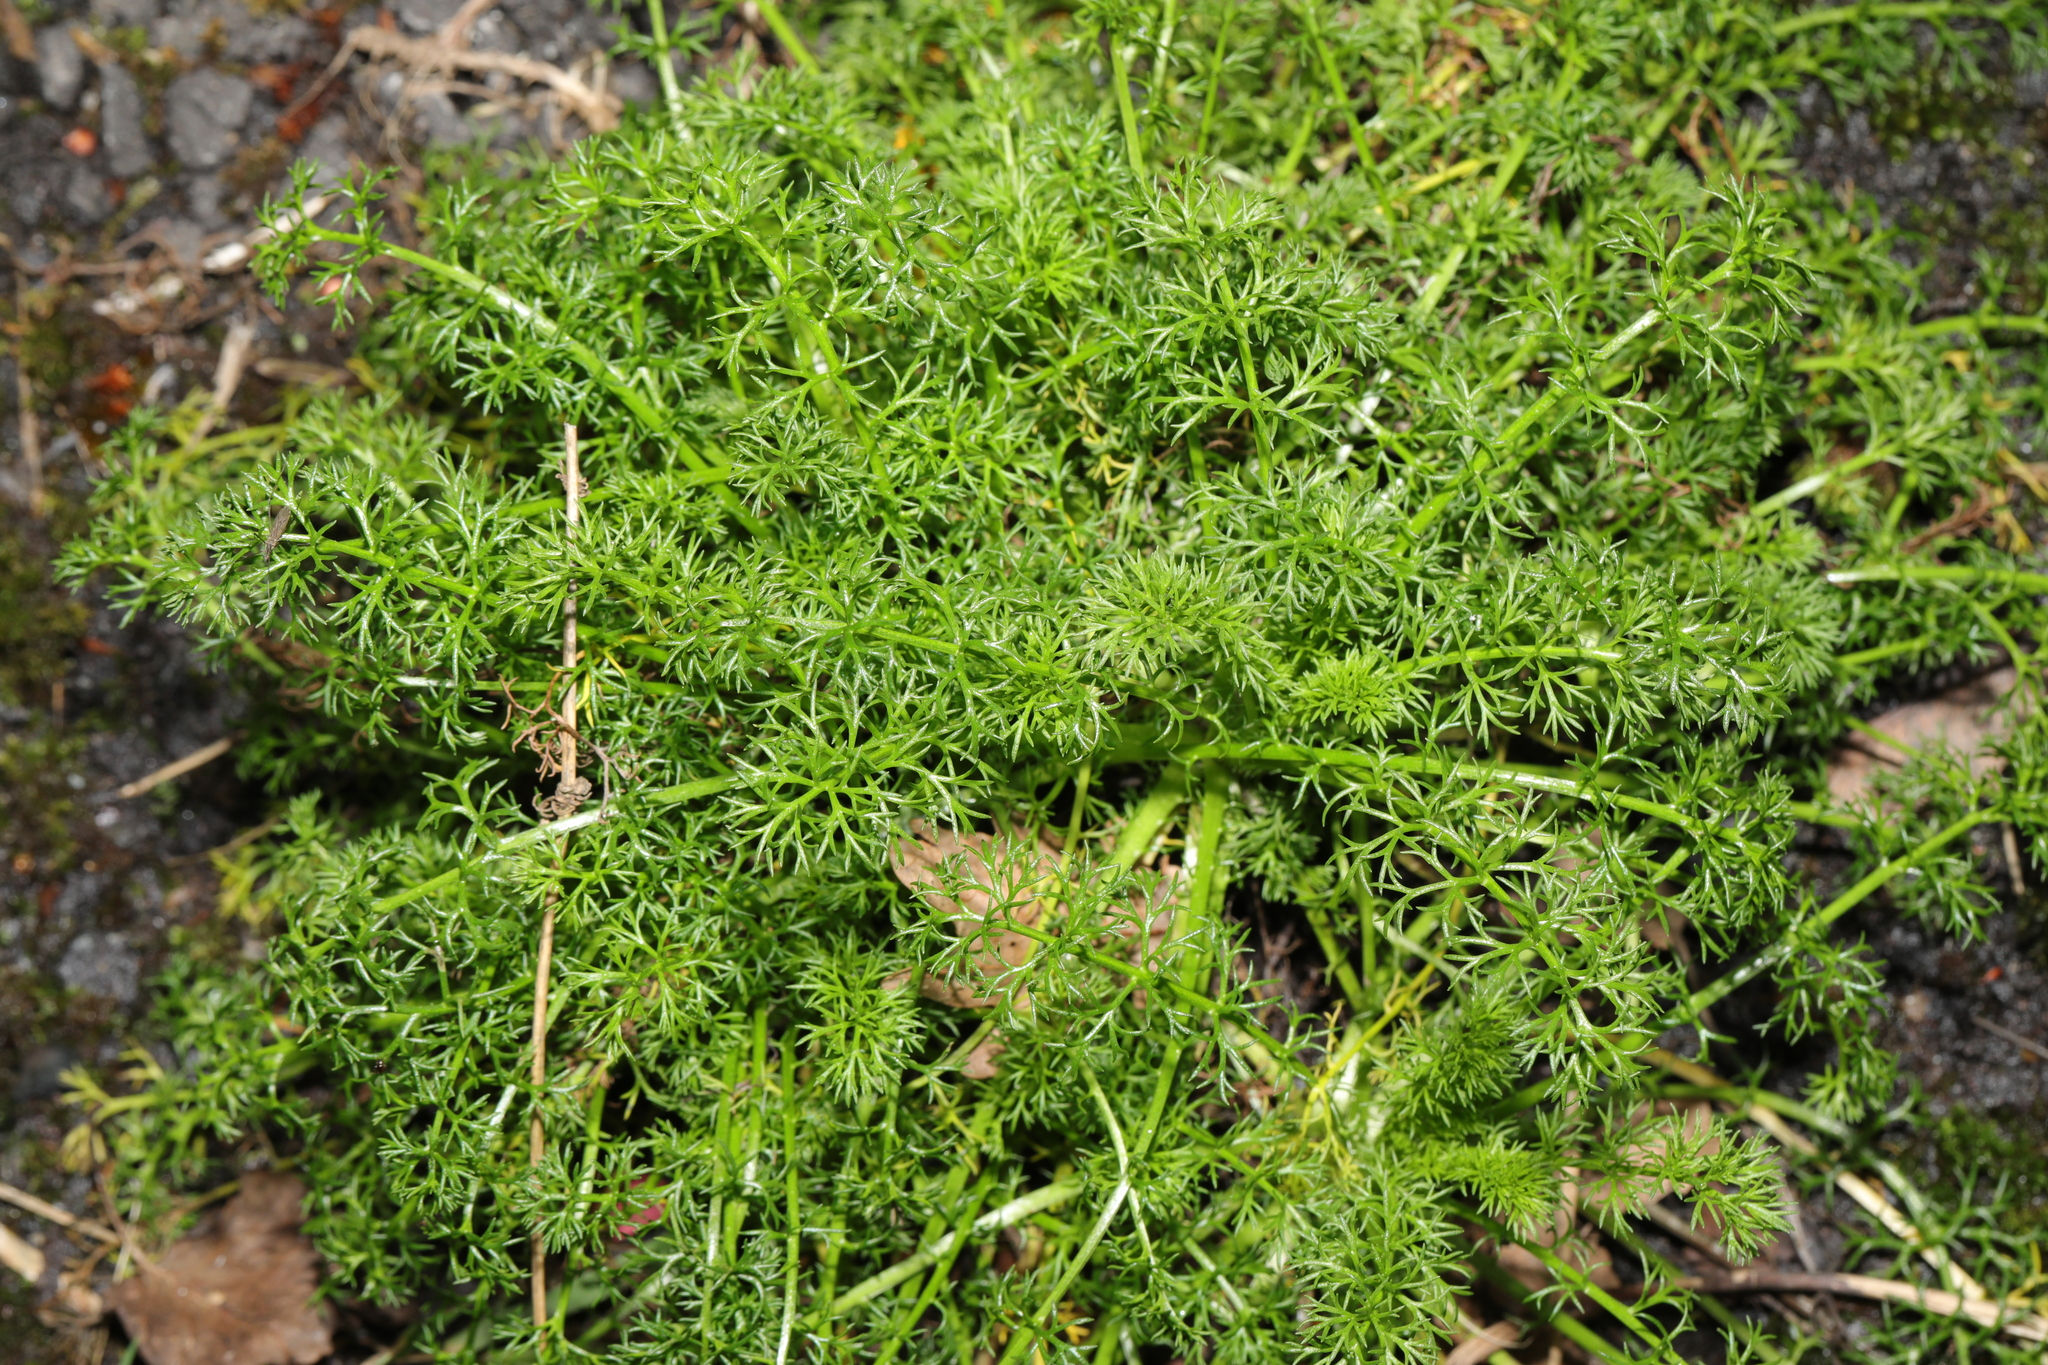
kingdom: Plantae
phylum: Tracheophyta
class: Magnoliopsida
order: Asterales
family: Asteraceae
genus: Tripleurospermum
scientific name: Tripleurospermum maritimum
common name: Sea mayweed
